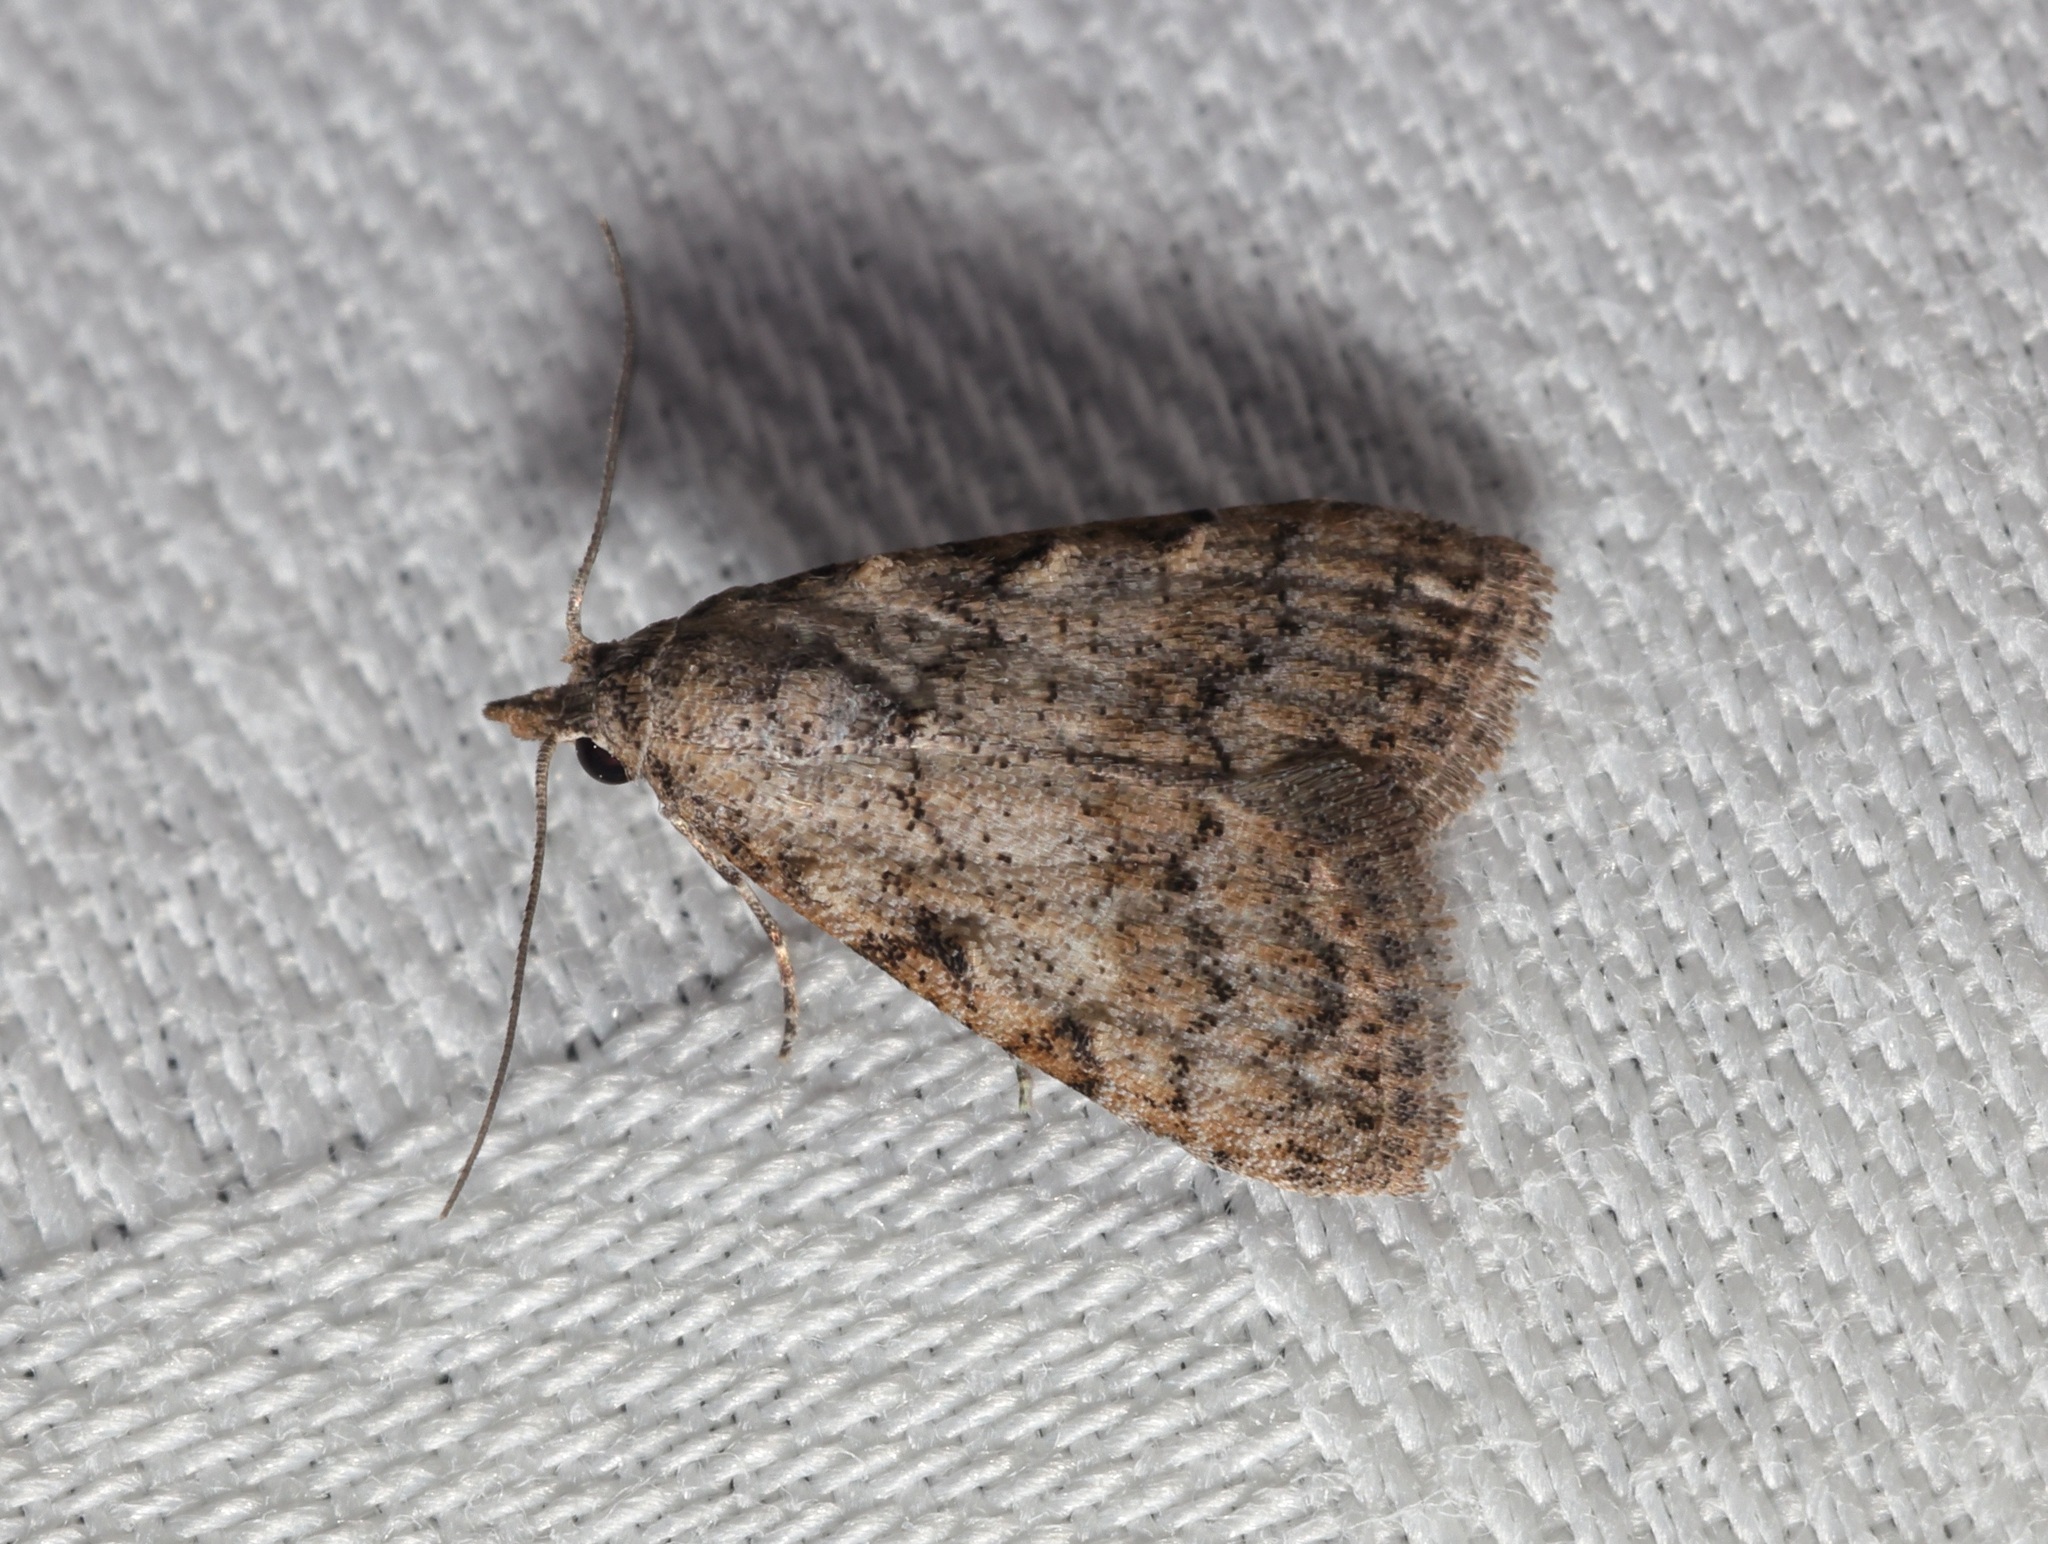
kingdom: Animalia
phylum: Arthropoda
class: Insecta
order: Lepidoptera
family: Nolidae
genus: Nola
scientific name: Nola ceylonica
